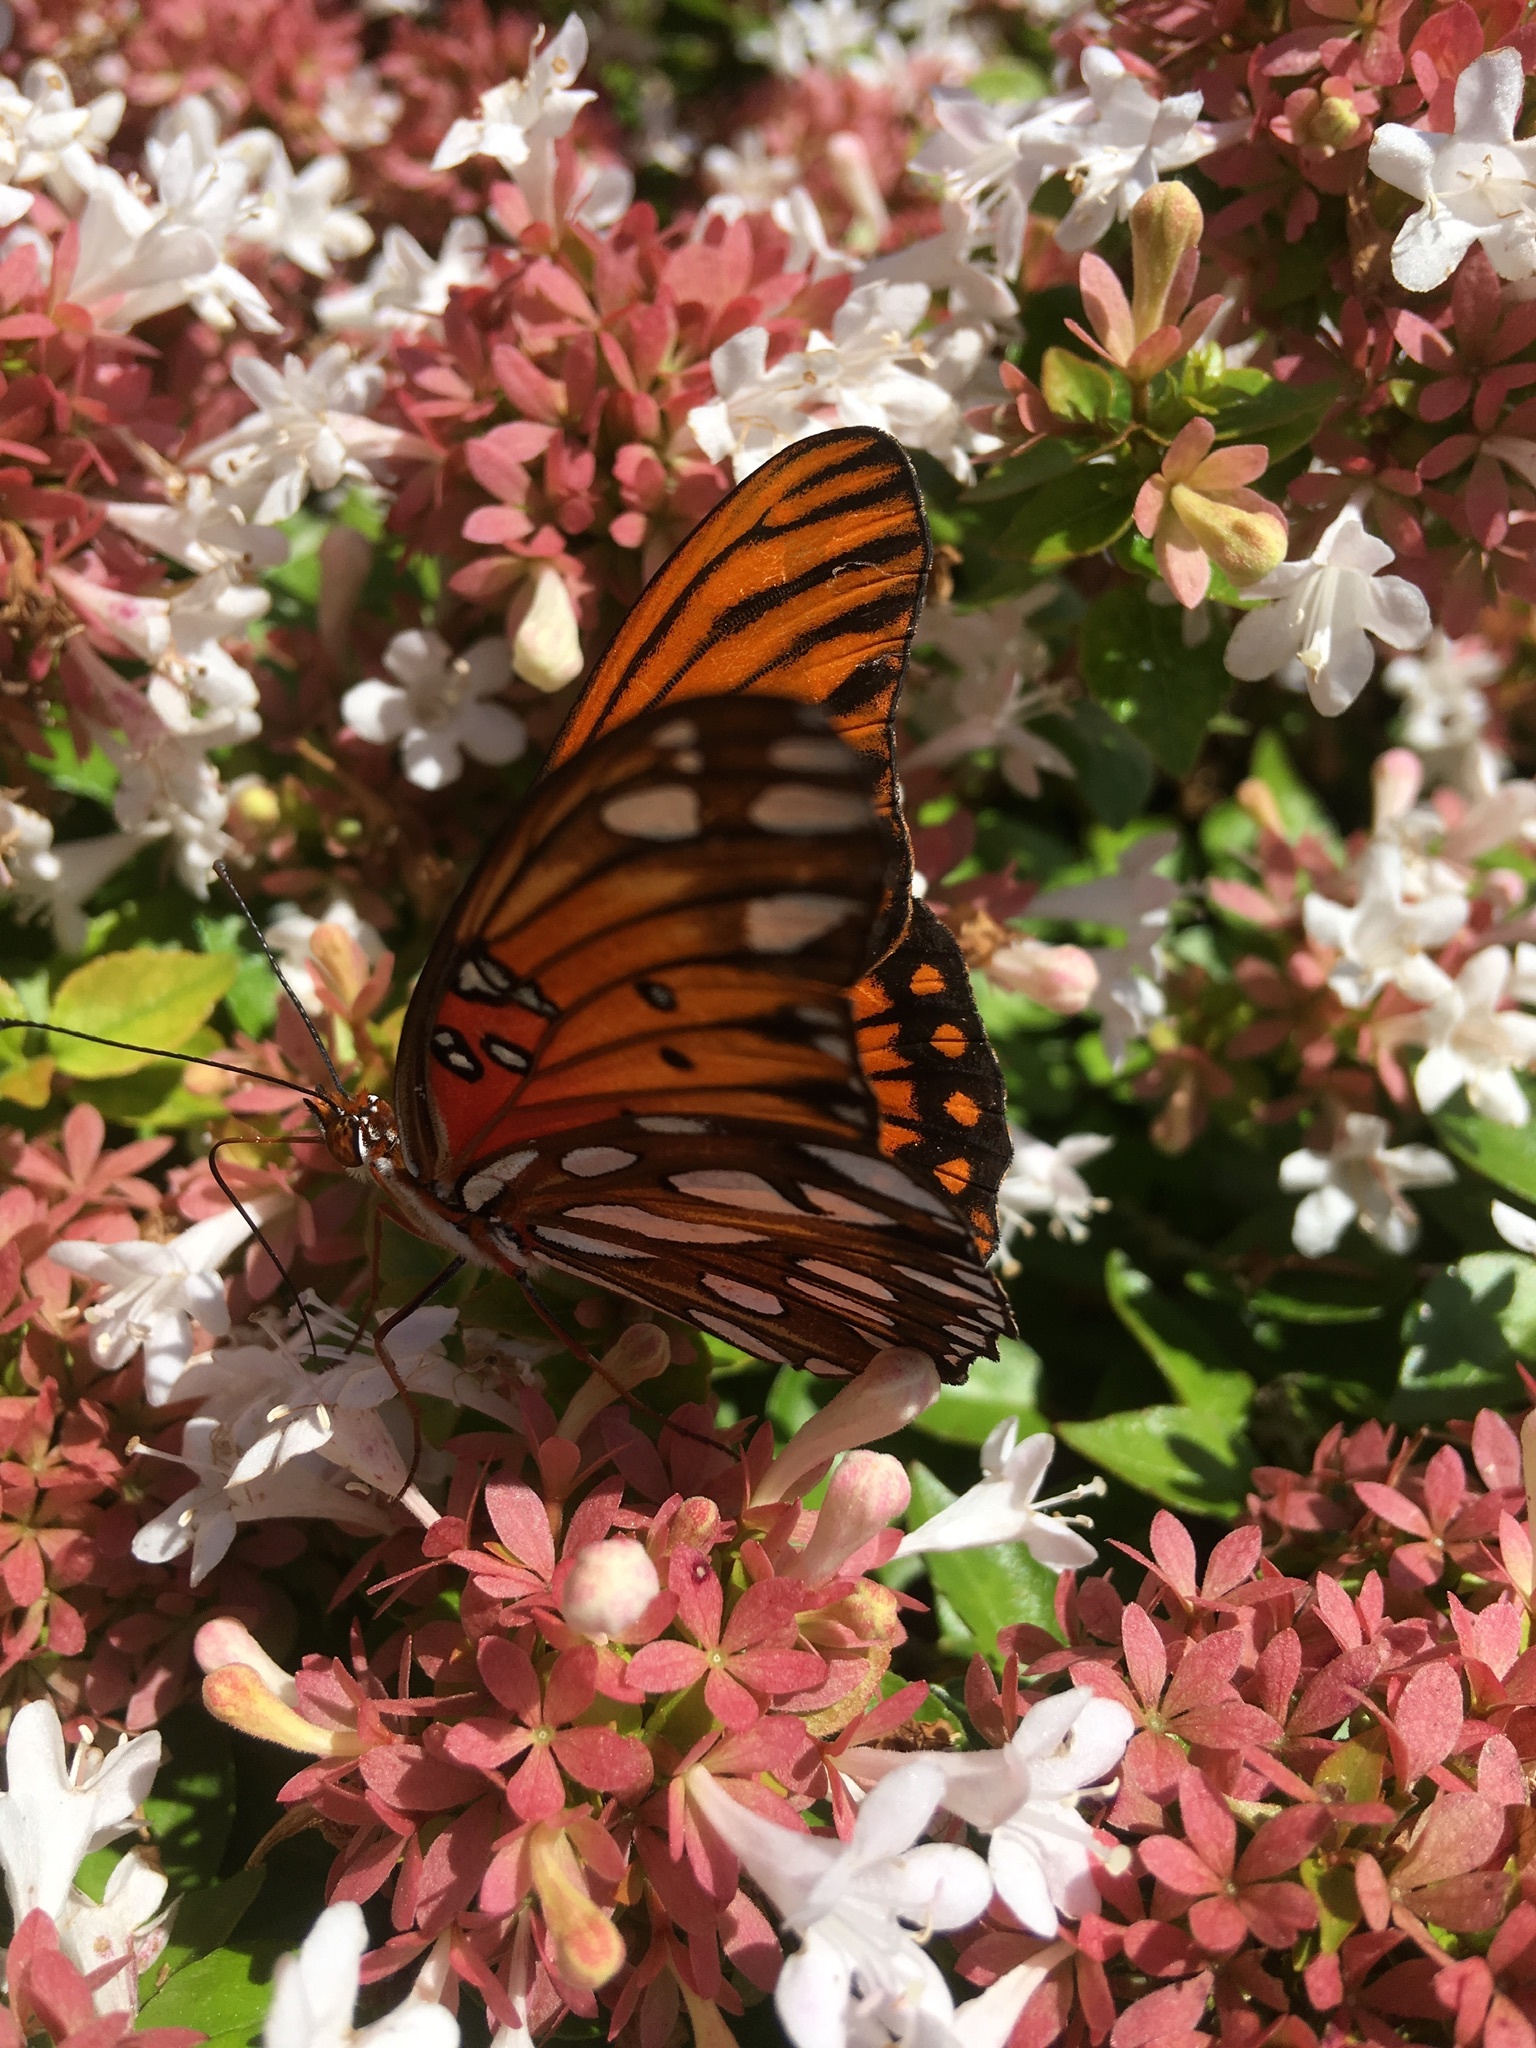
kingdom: Animalia
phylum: Arthropoda
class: Insecta
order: Lepidoptera
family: Nymphalidae
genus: Dione
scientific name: Dione vanillae
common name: Gulf fritillary
